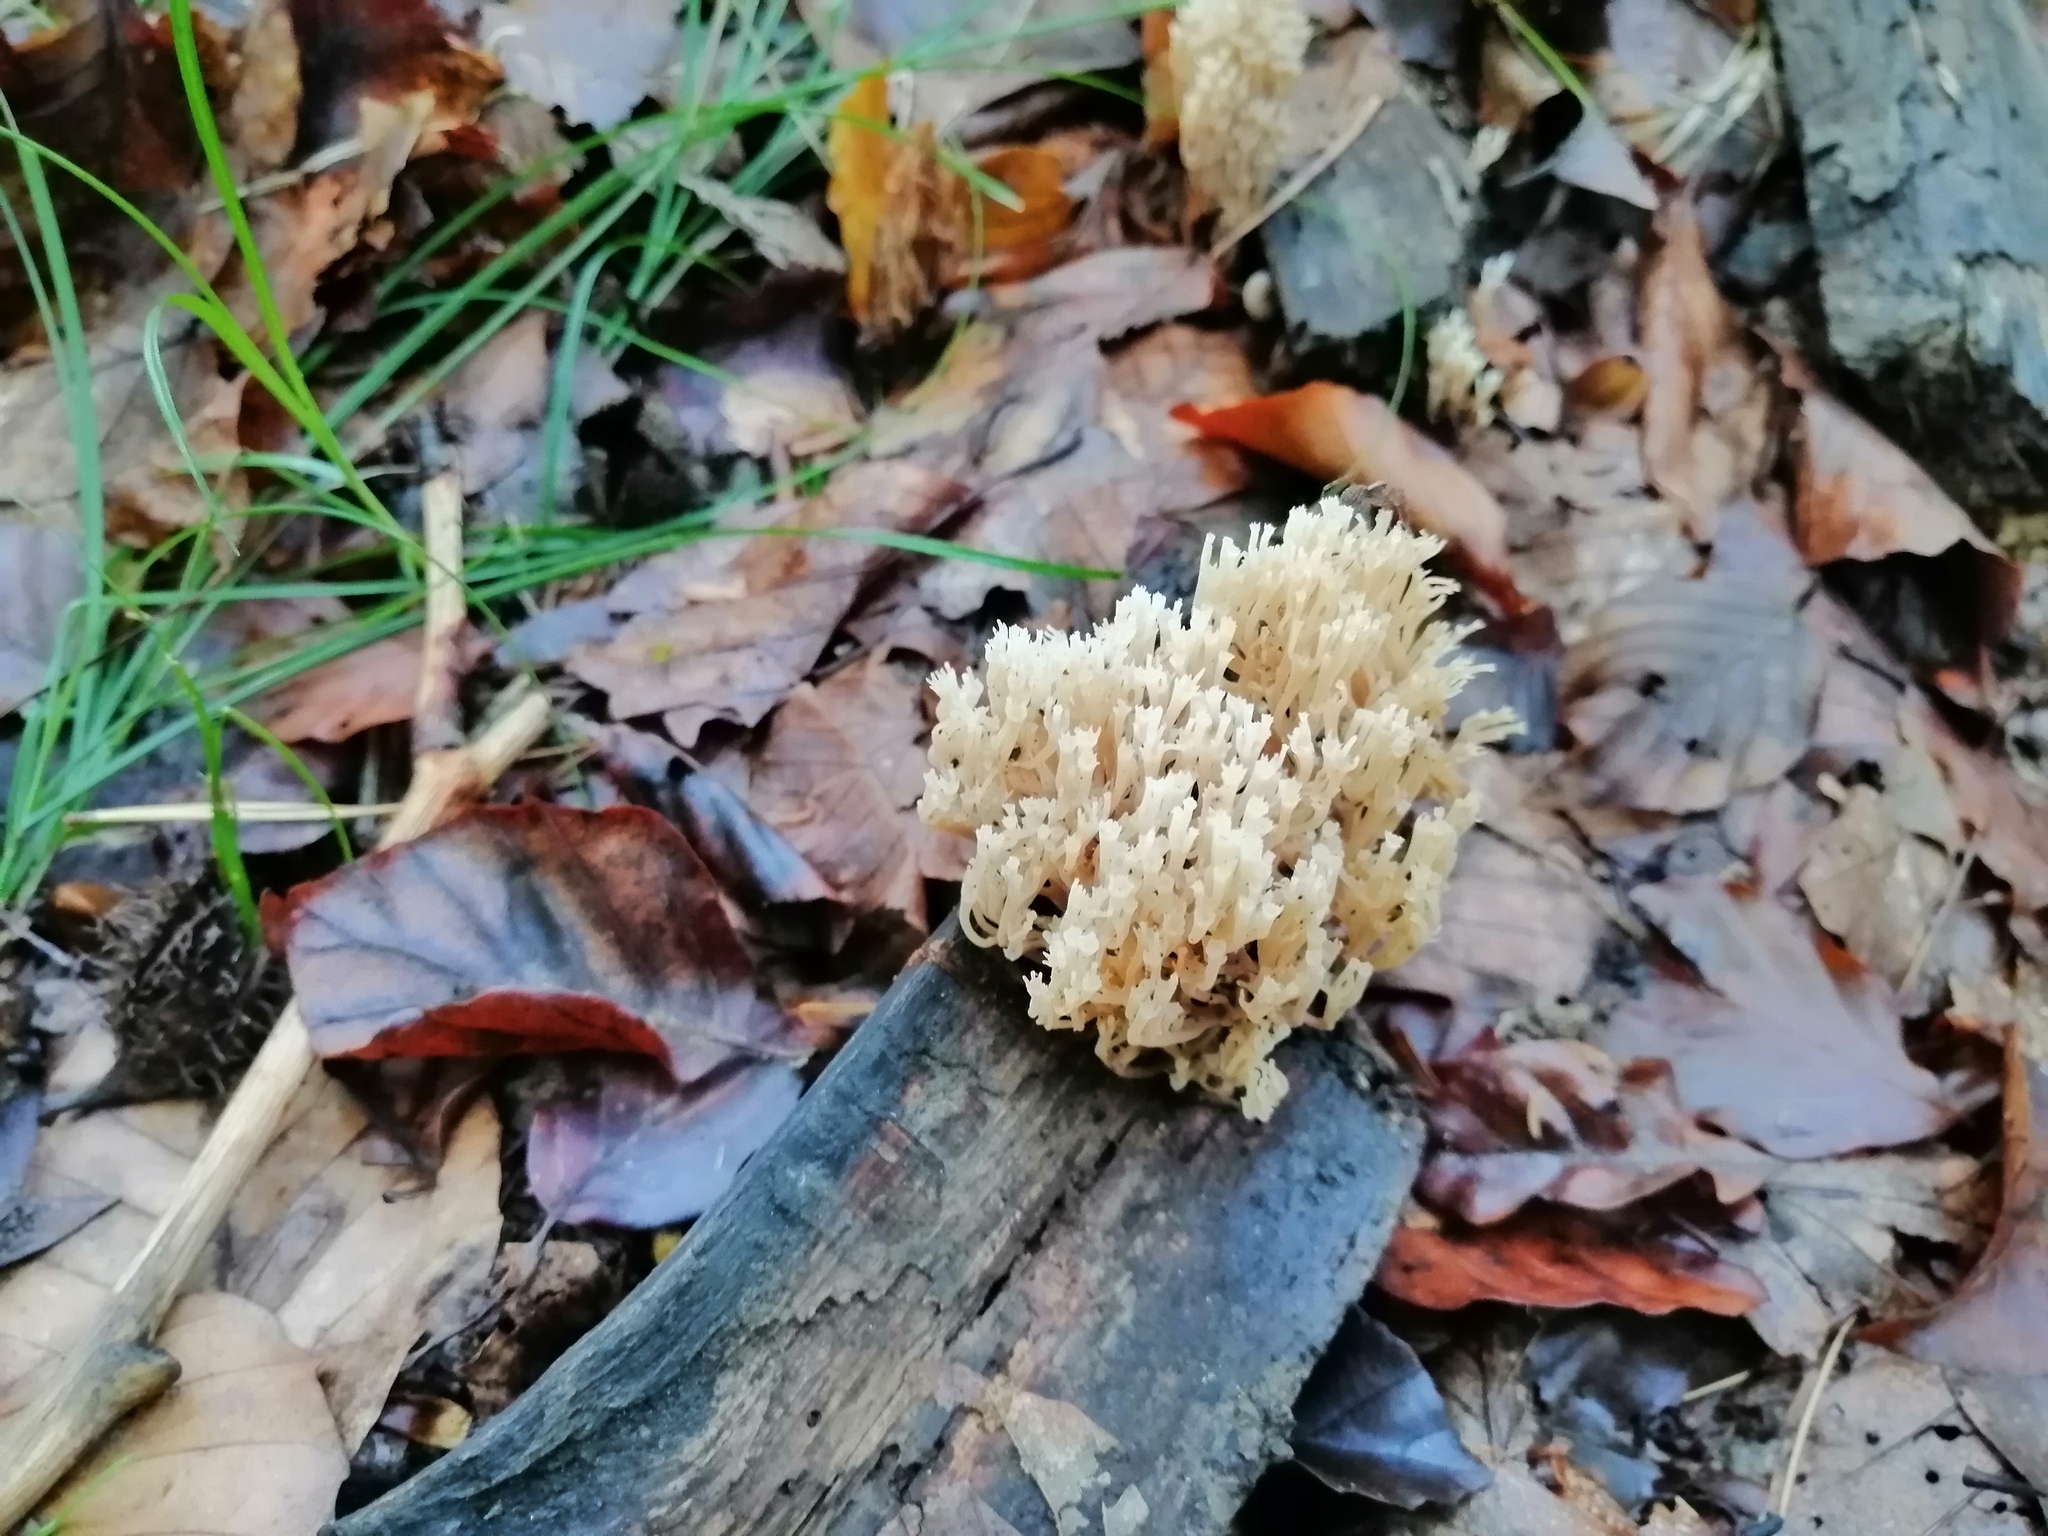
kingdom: Fungi
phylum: Basidiomycota
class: Agaricomycetes
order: Russulales
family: Auriscalpiaceae
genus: Artomyces
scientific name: Artomyces pyxidatus
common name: Crown-tipped coral fungus
